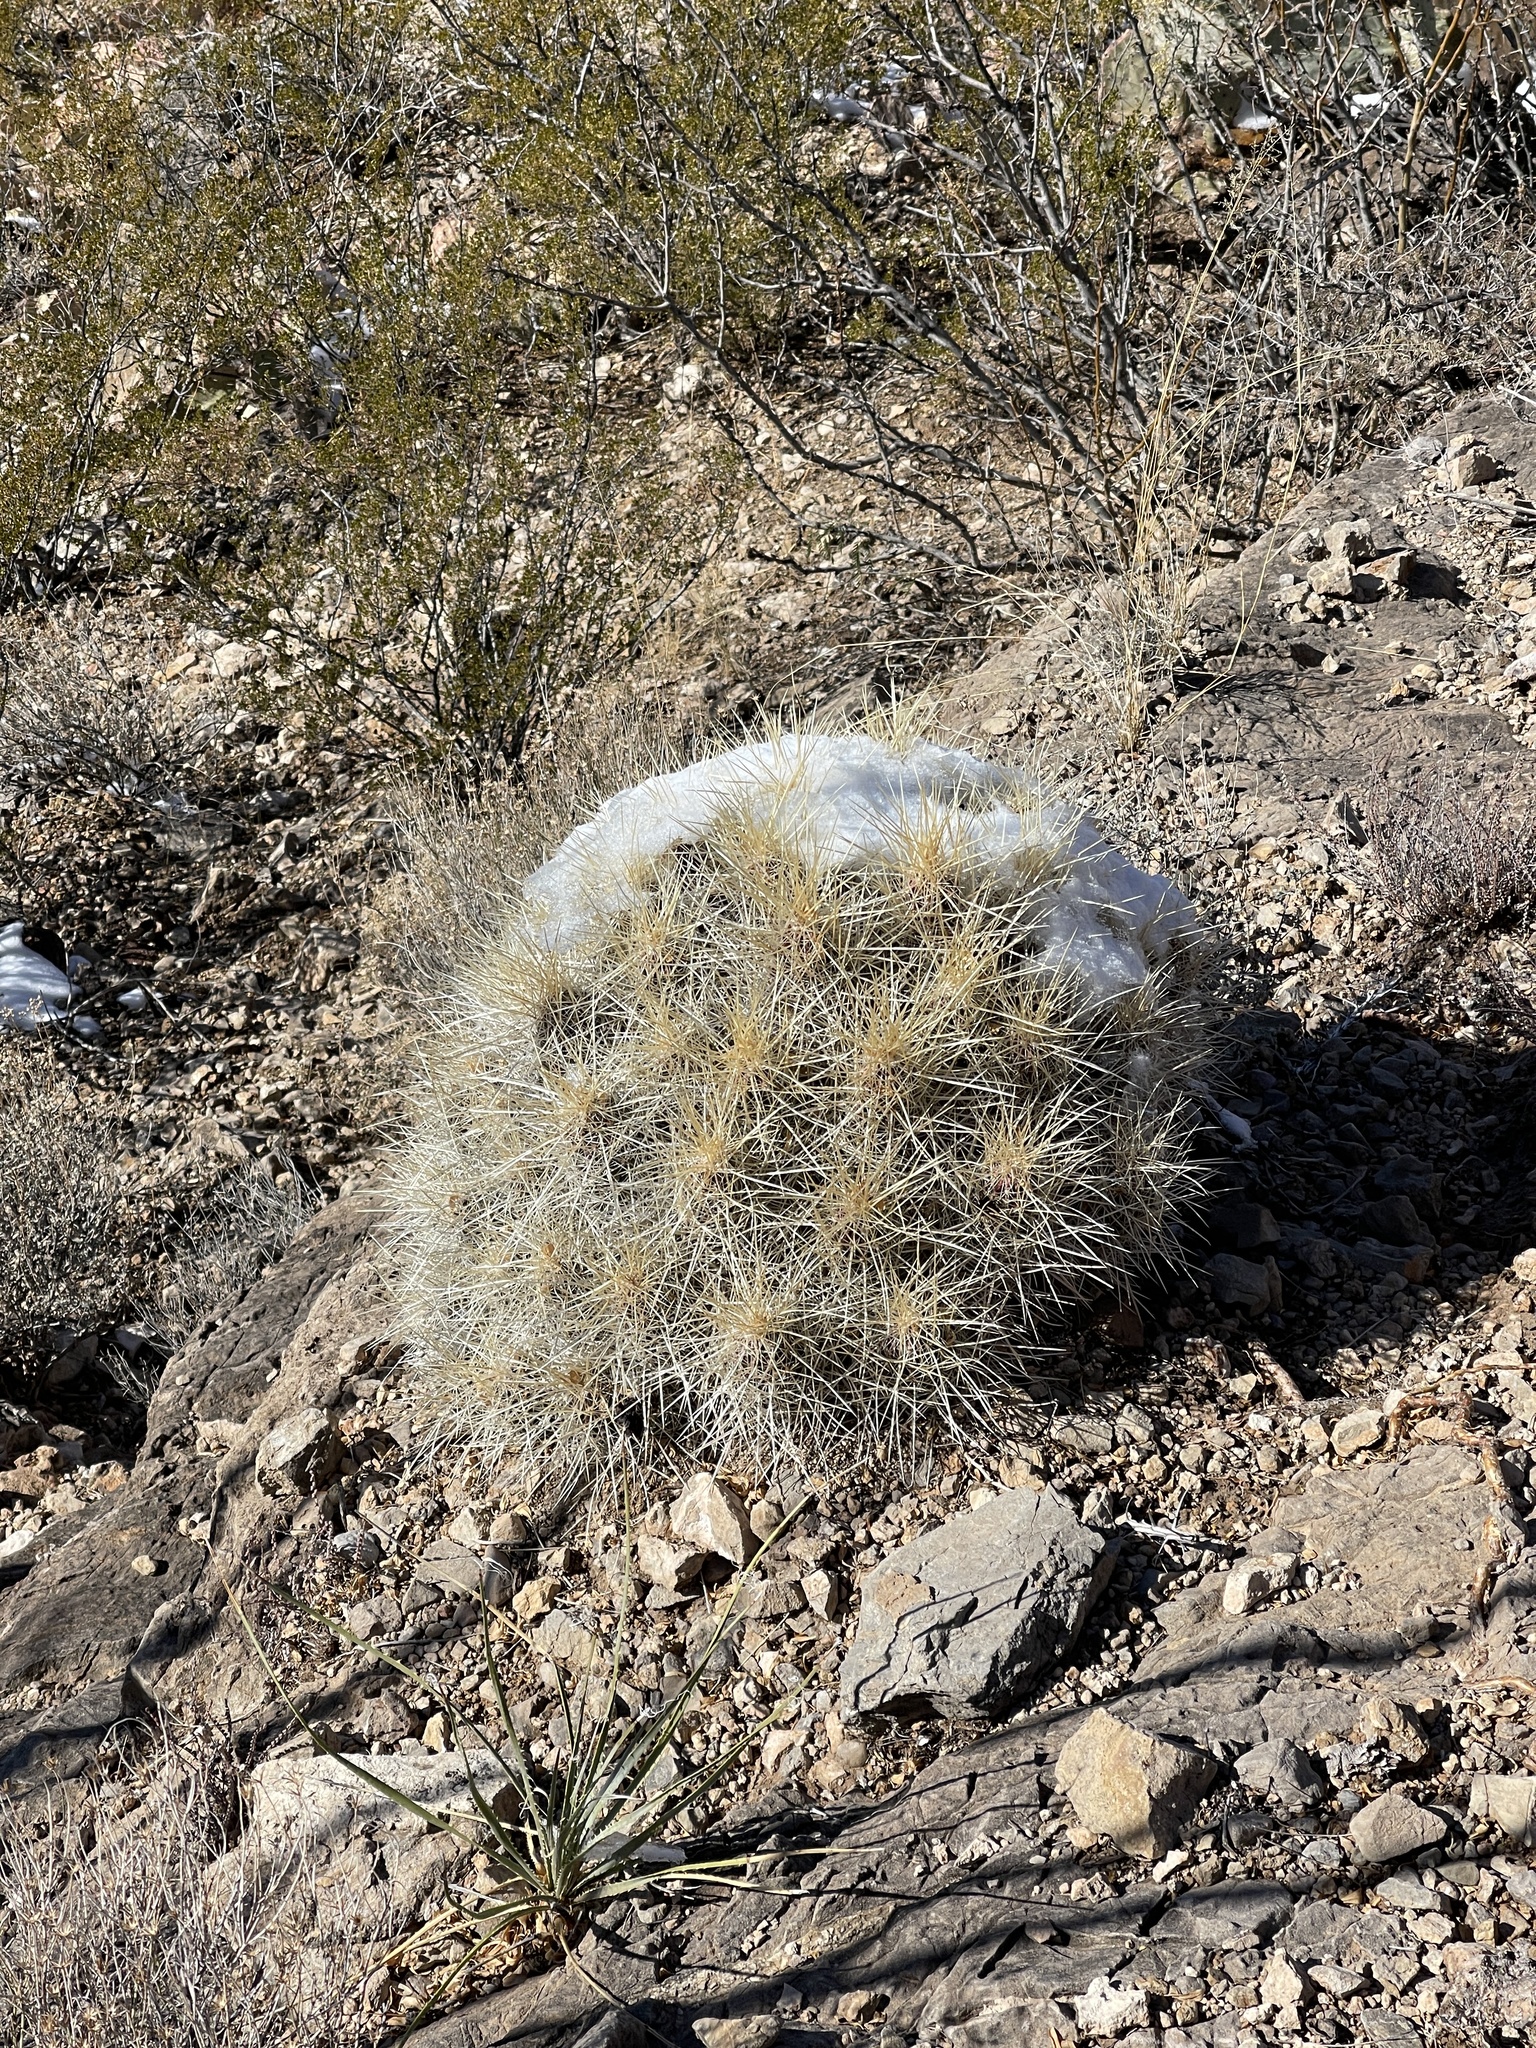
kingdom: Plantae
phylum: Tracheophyta
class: Magnoliopsida
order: Caryophyllales
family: Cactaceae
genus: Echinocereus
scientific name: Echinocereus stramineus
